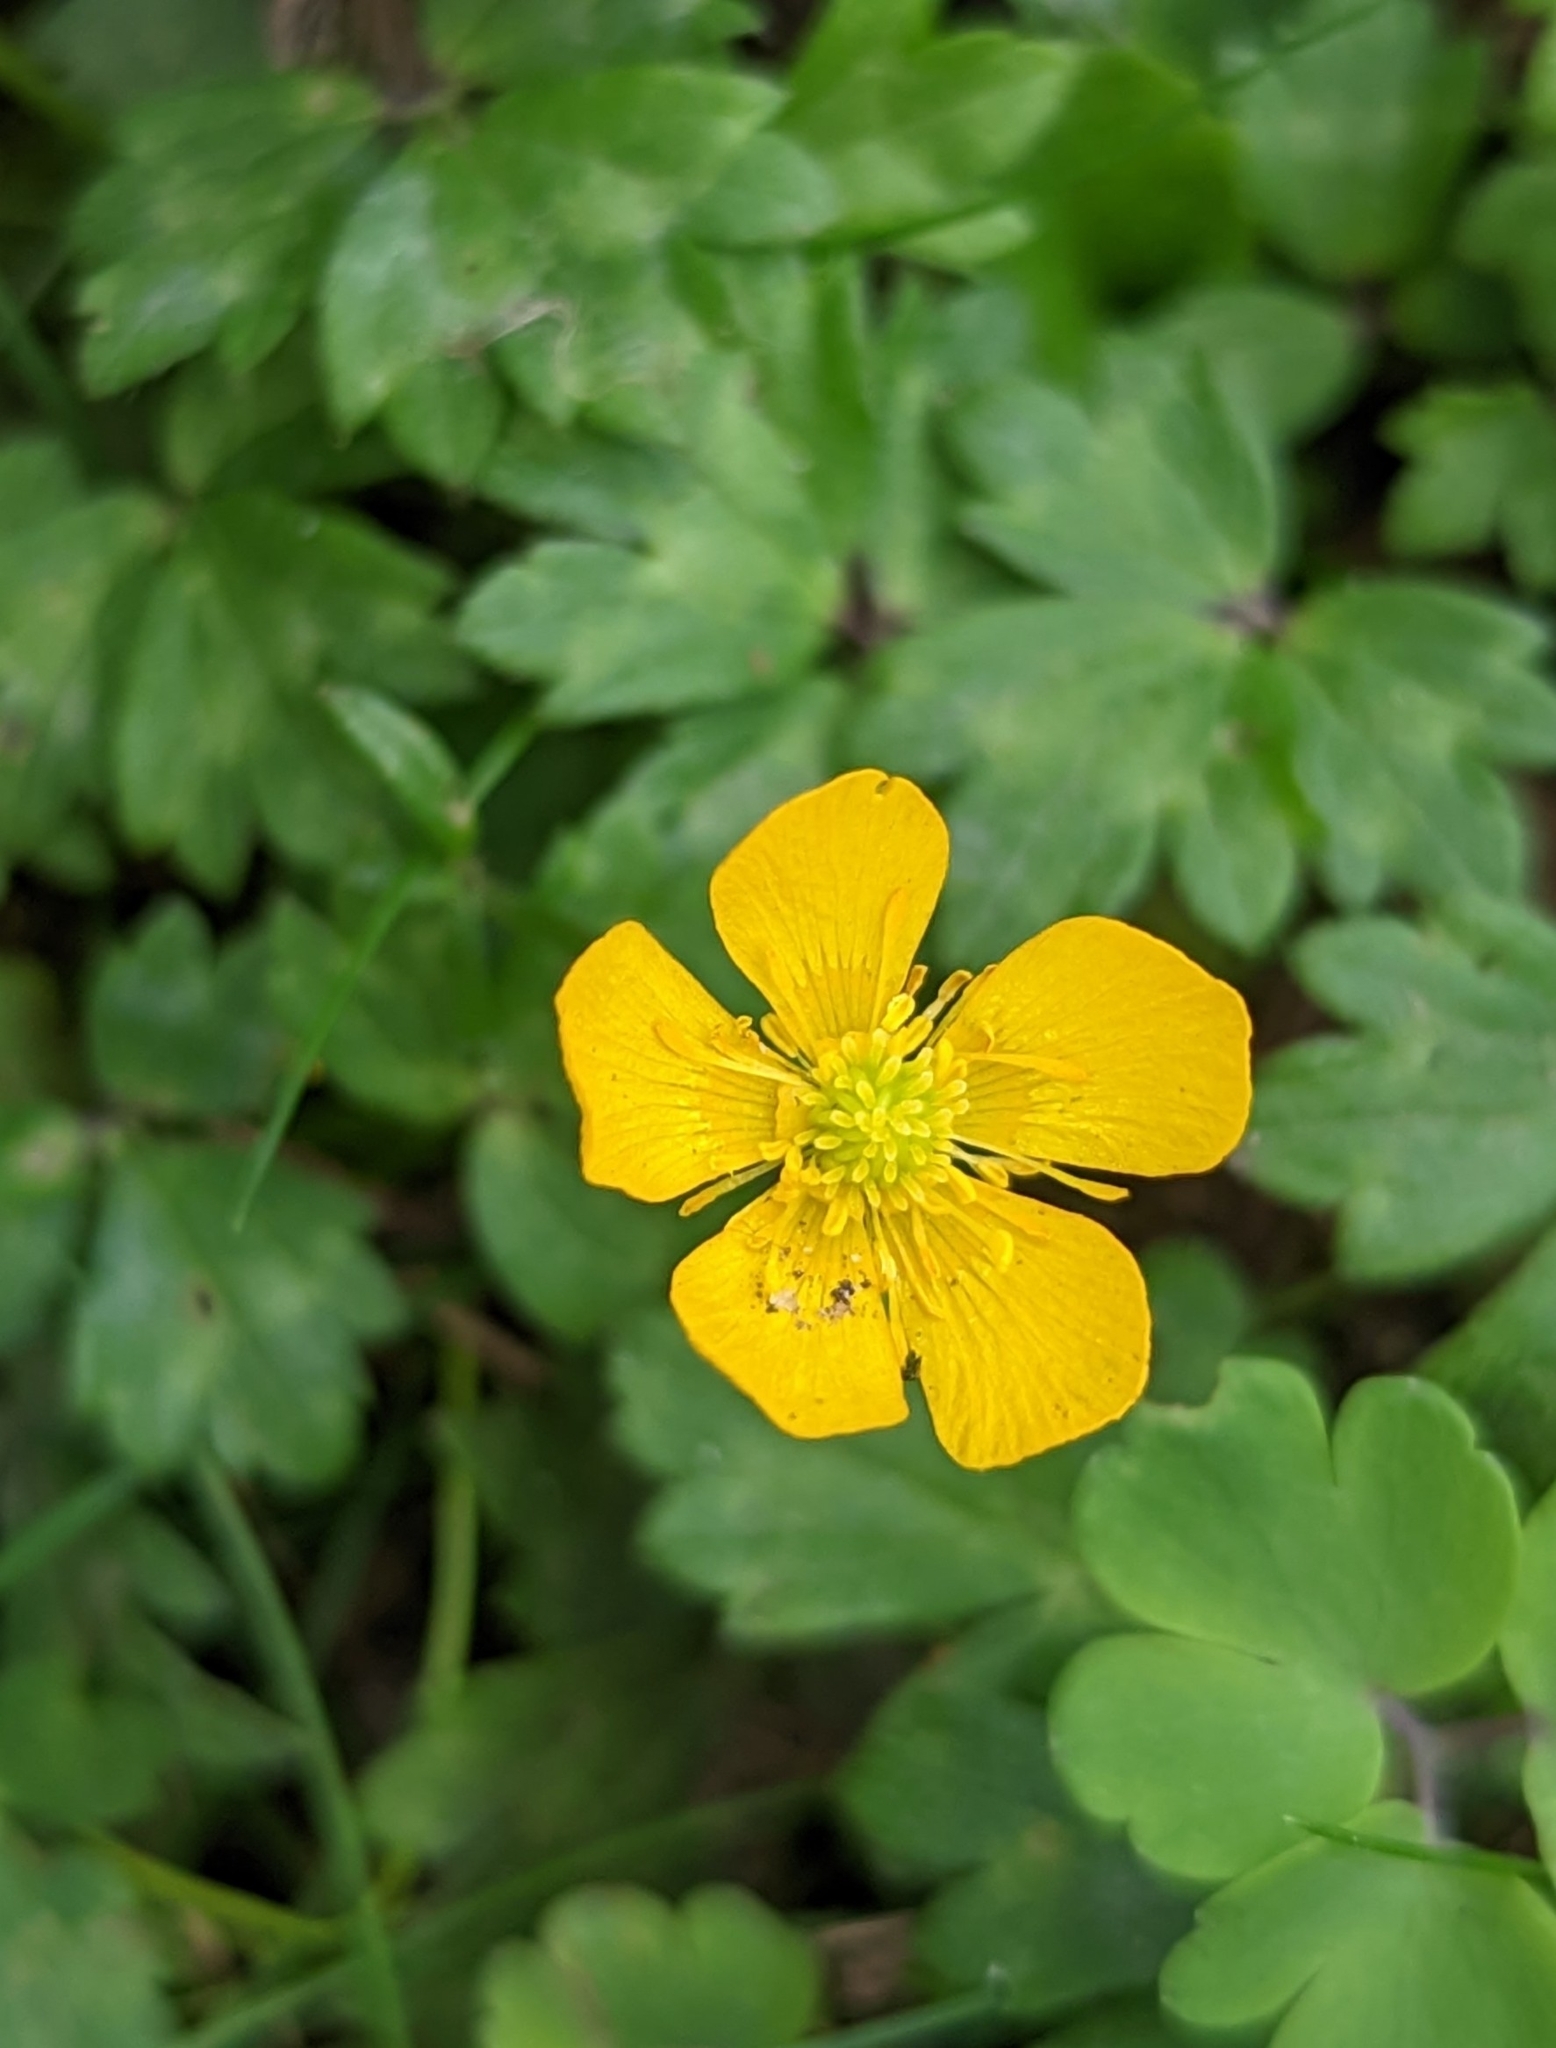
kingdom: Plantae
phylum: Tracheophyta
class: Magnoliopsida
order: Ranunculales
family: Ranunculaceae
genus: Ranunculus
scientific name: Ranunculus repens
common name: Creeping buttercup
